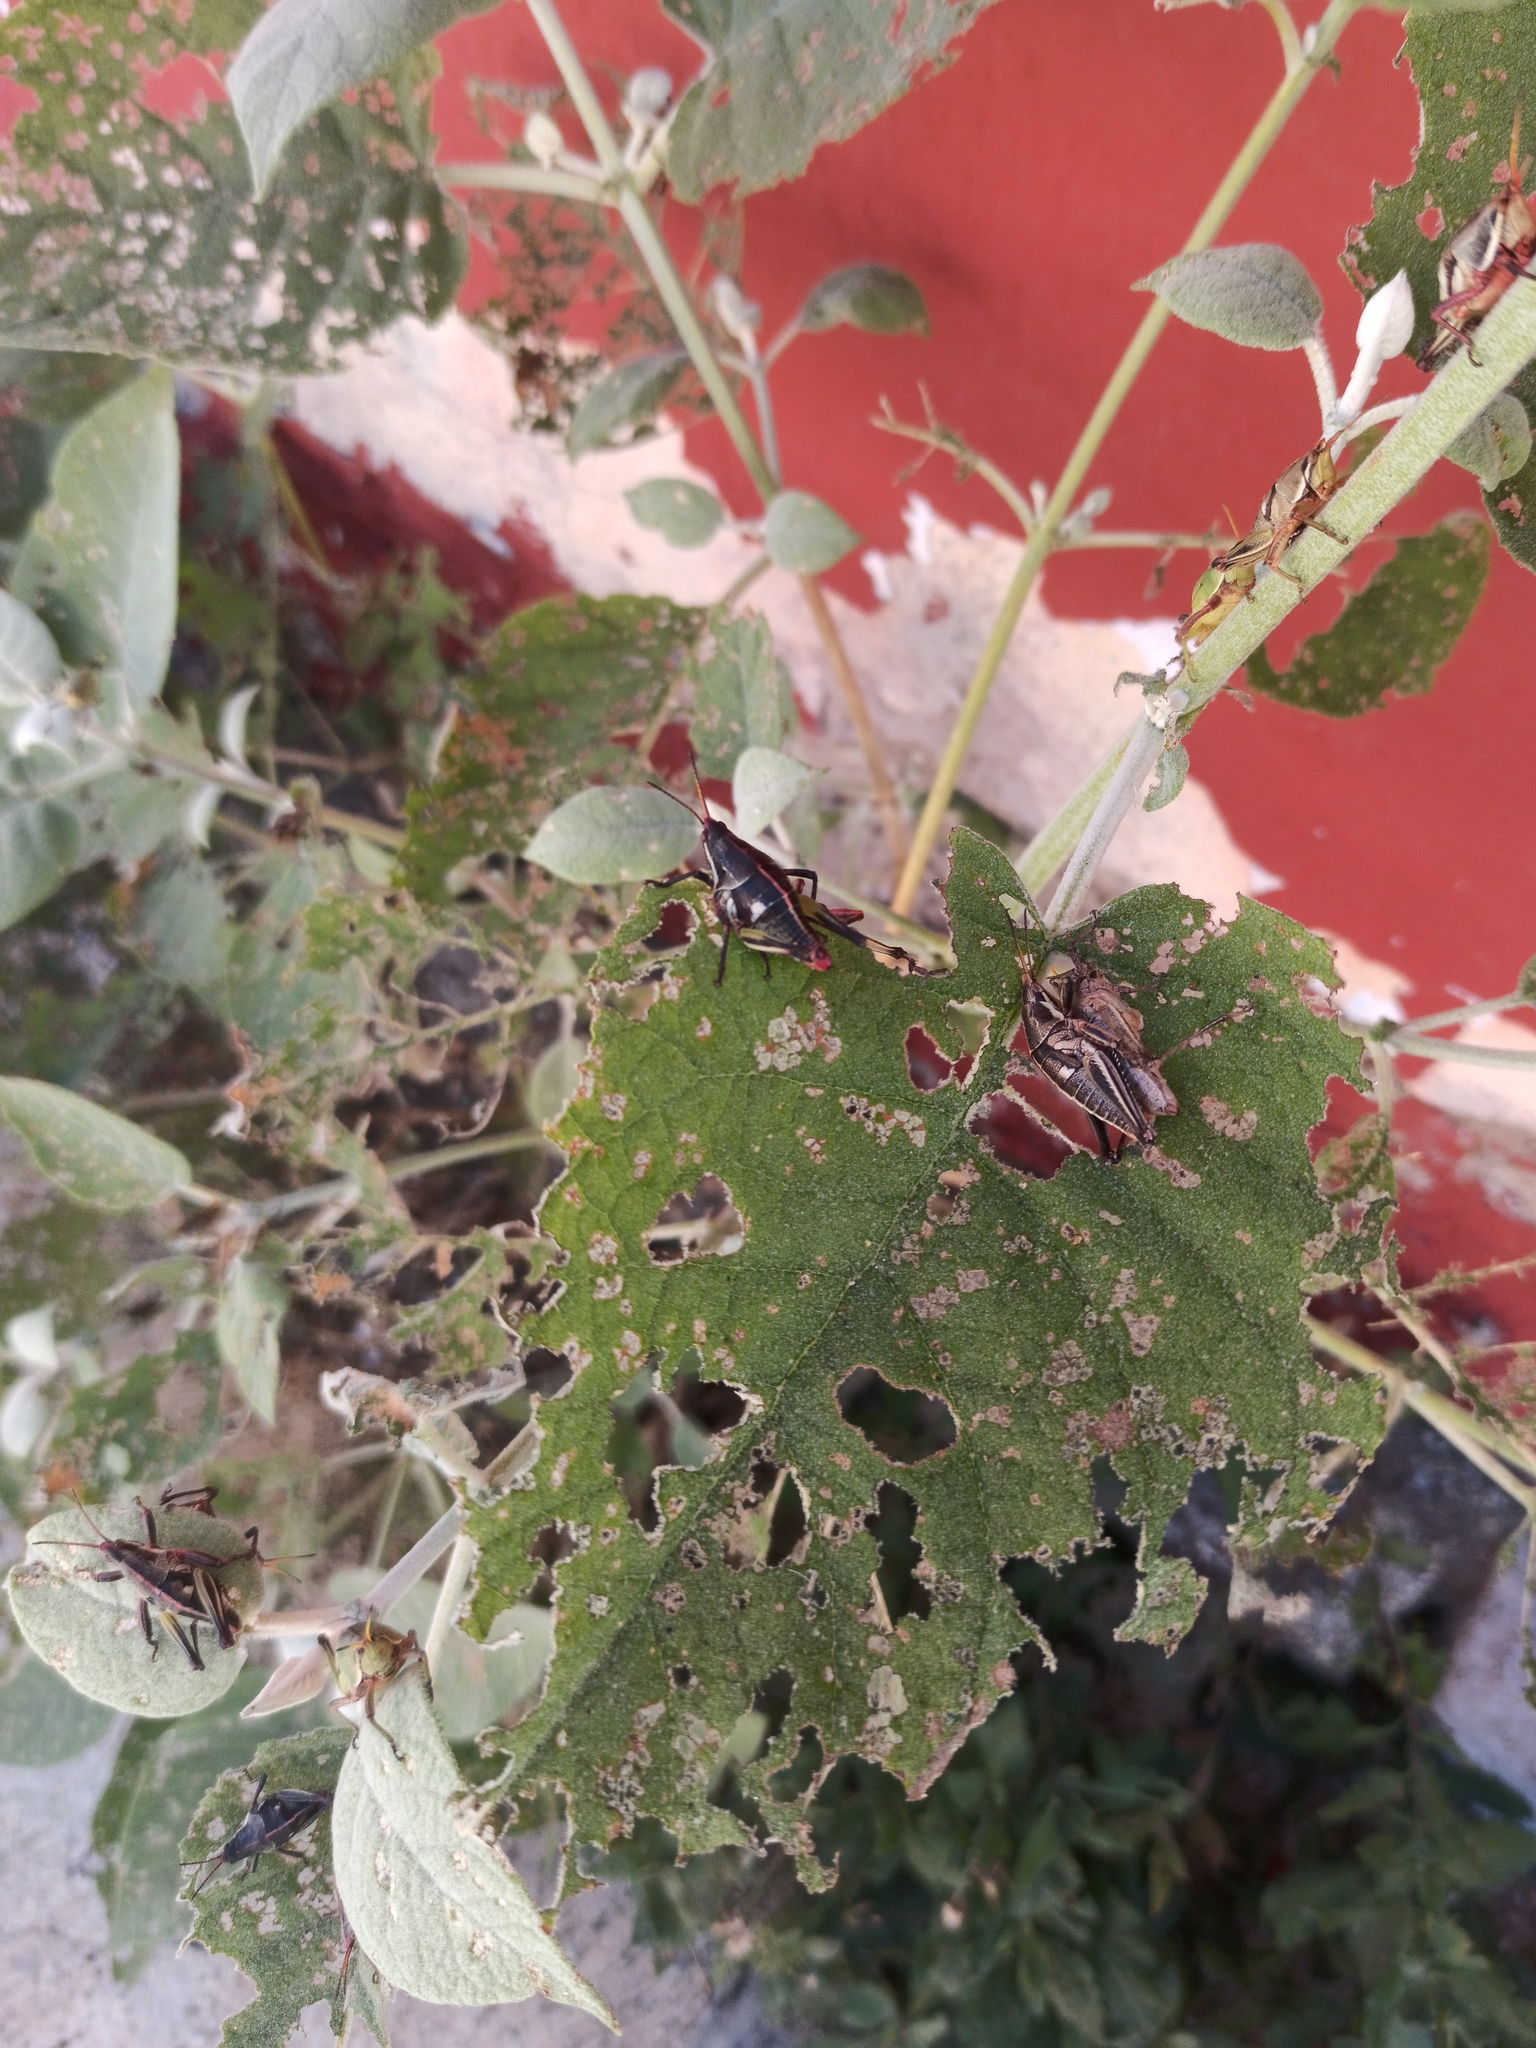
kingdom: Animalia
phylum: Arthropoda
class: Insecta
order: Orthoptera
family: Pyrgomorphidae
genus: Sphenarium
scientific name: Sphenarium purpurascens
